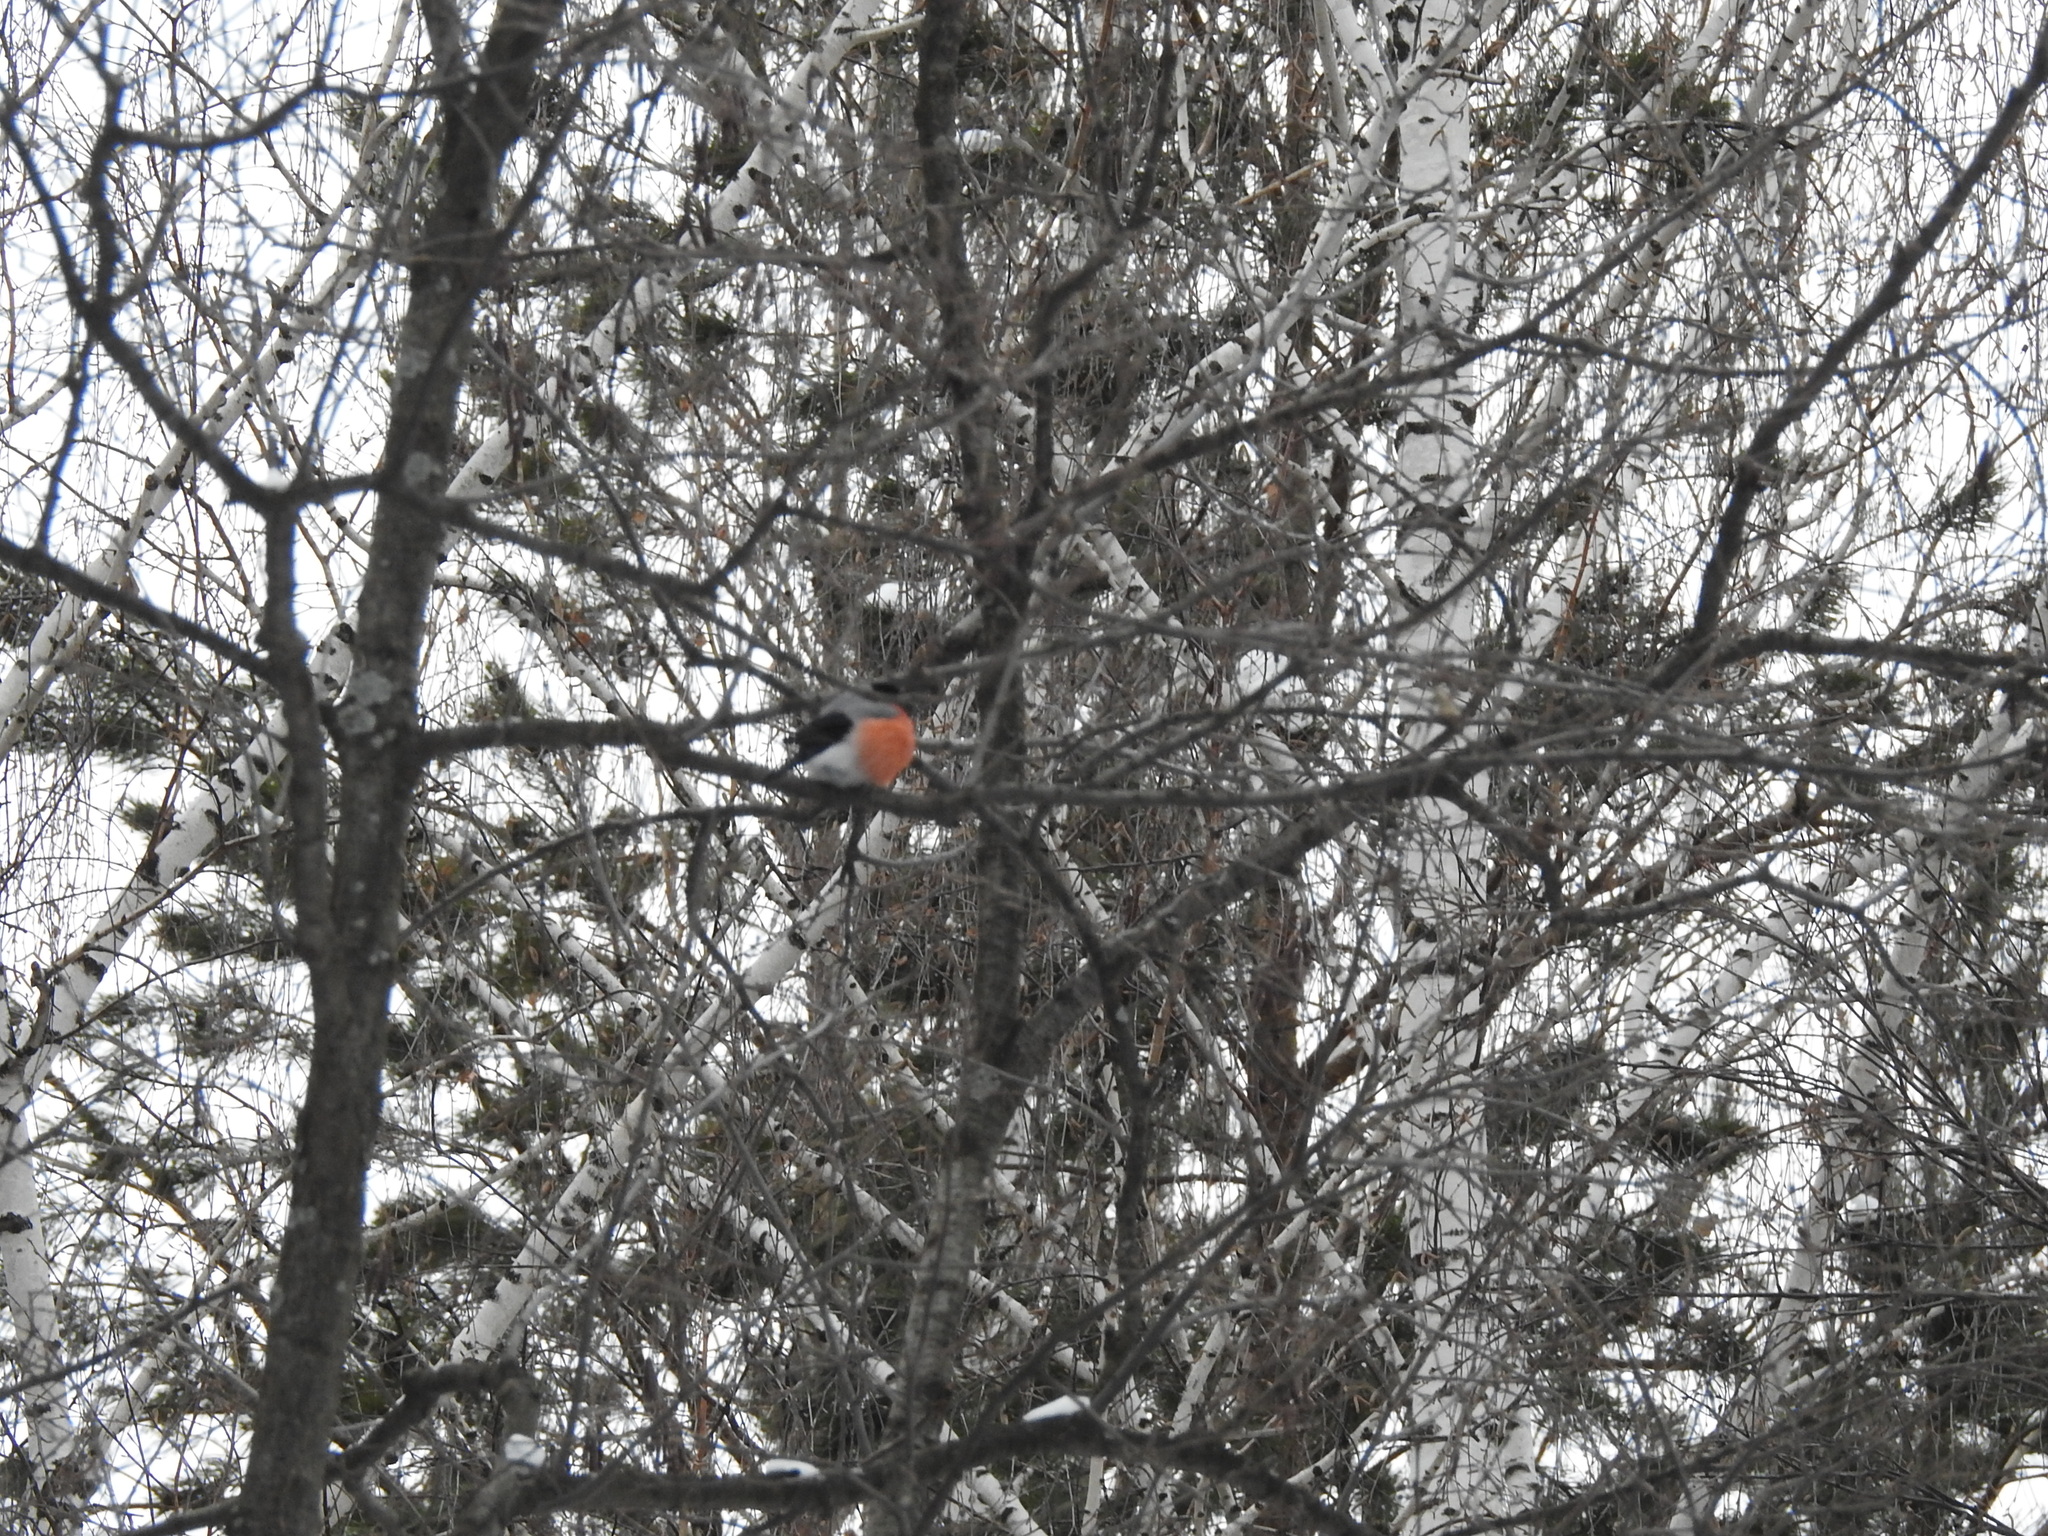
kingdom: Animalia
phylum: Chordata
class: Aves
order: Passeriformes
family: Fringillidae
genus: Pyrrhula
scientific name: Pyrrhula pyrrhula
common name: Eurasian bullfinch
